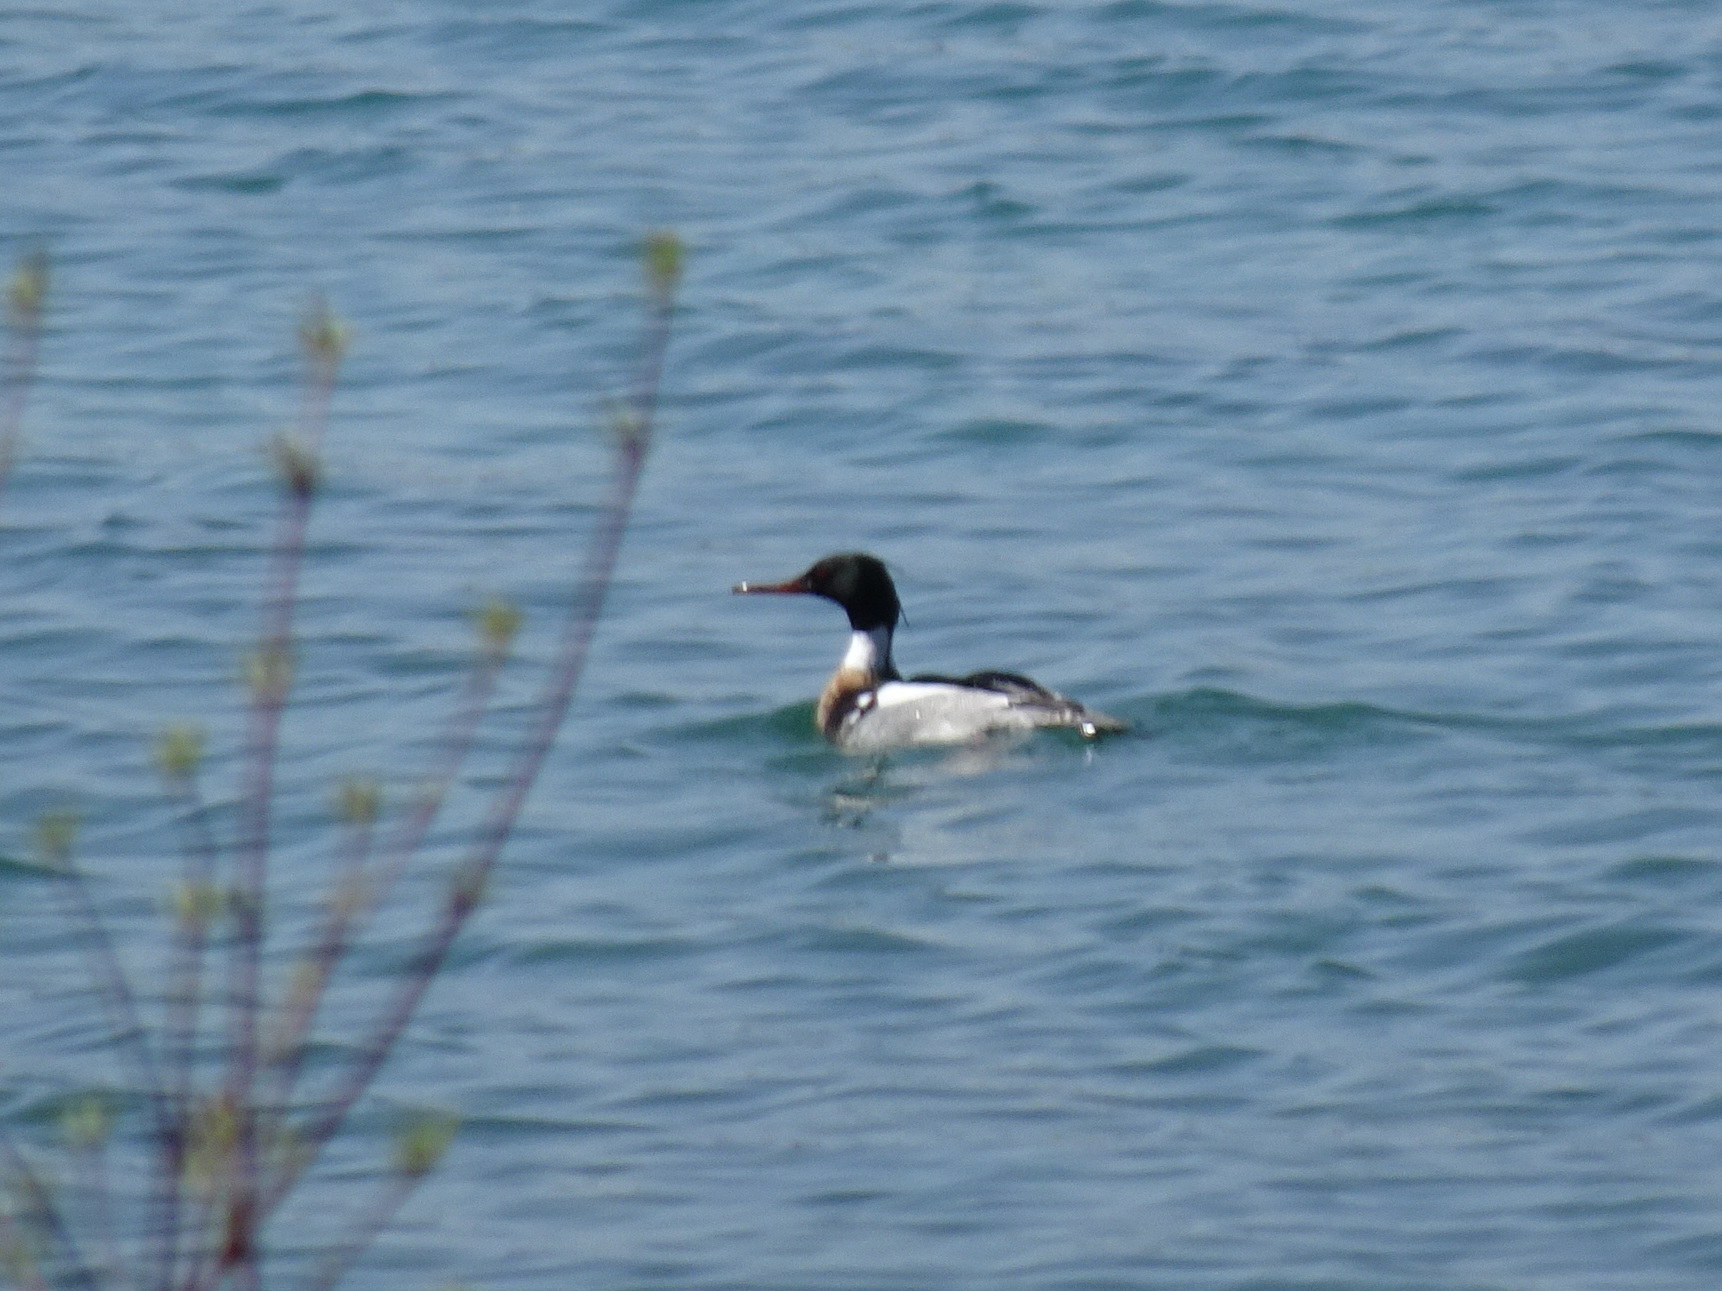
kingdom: Animalia
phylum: Chordata
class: Aves
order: Anseriformes
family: Anatidae
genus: Mergus
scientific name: Mergus serrator
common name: Red-breasted merganser
